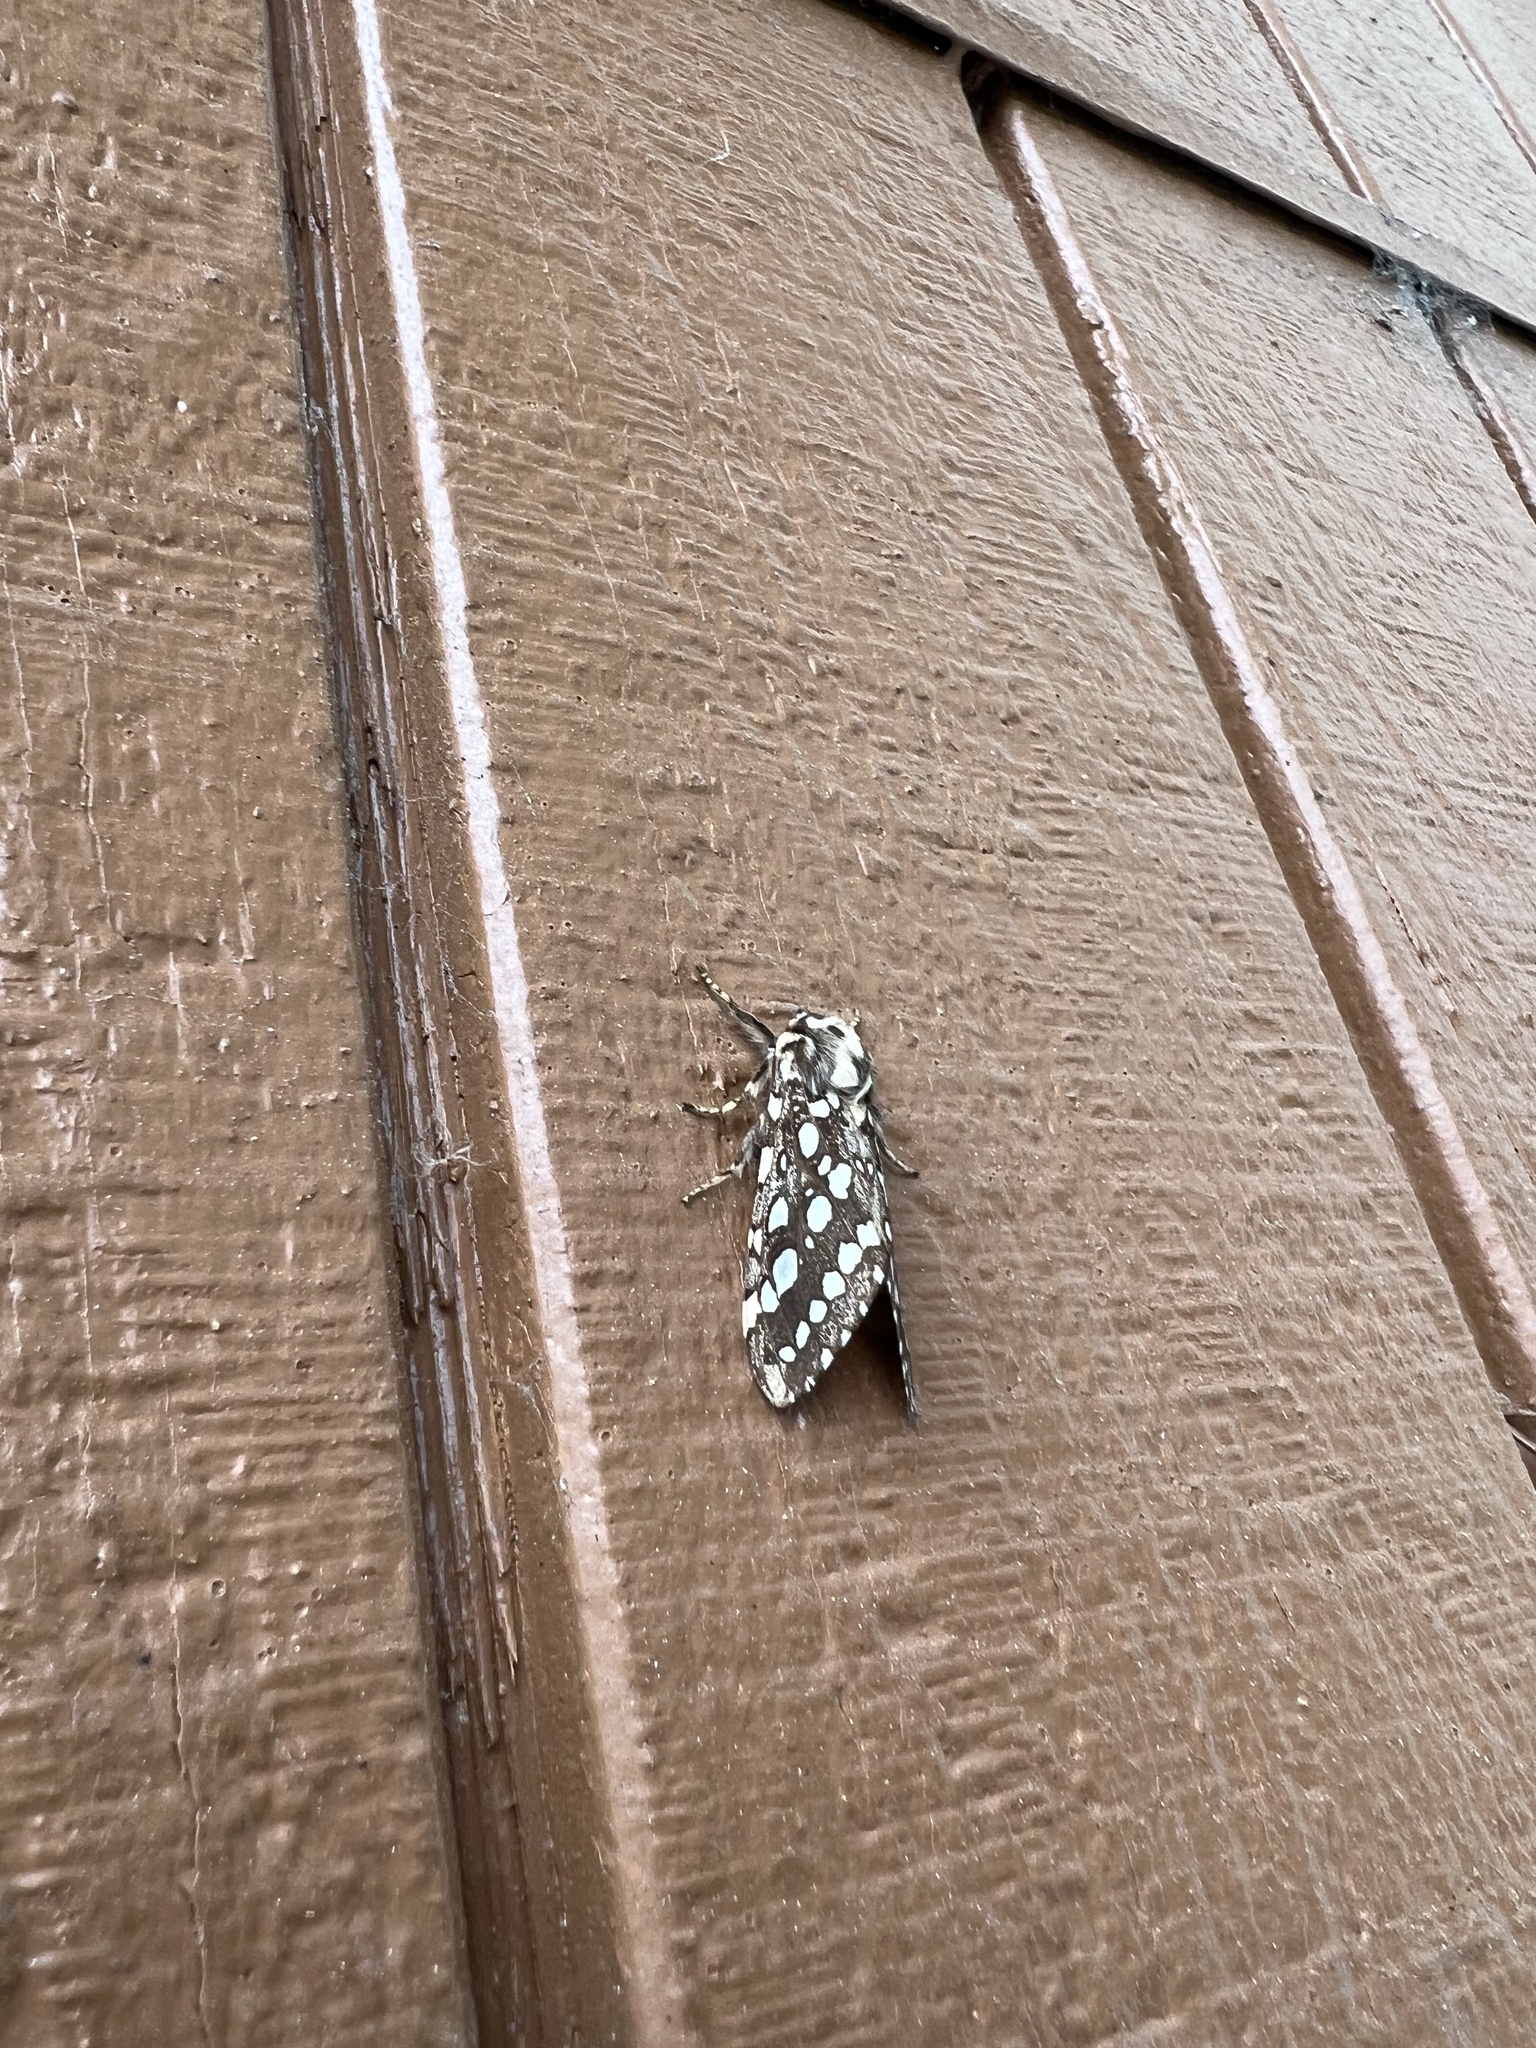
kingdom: Animalia
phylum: Arthropoda
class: Insecta
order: Lepidoptera
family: Erebidae
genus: Lophocampa
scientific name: Lophocampa argentata
